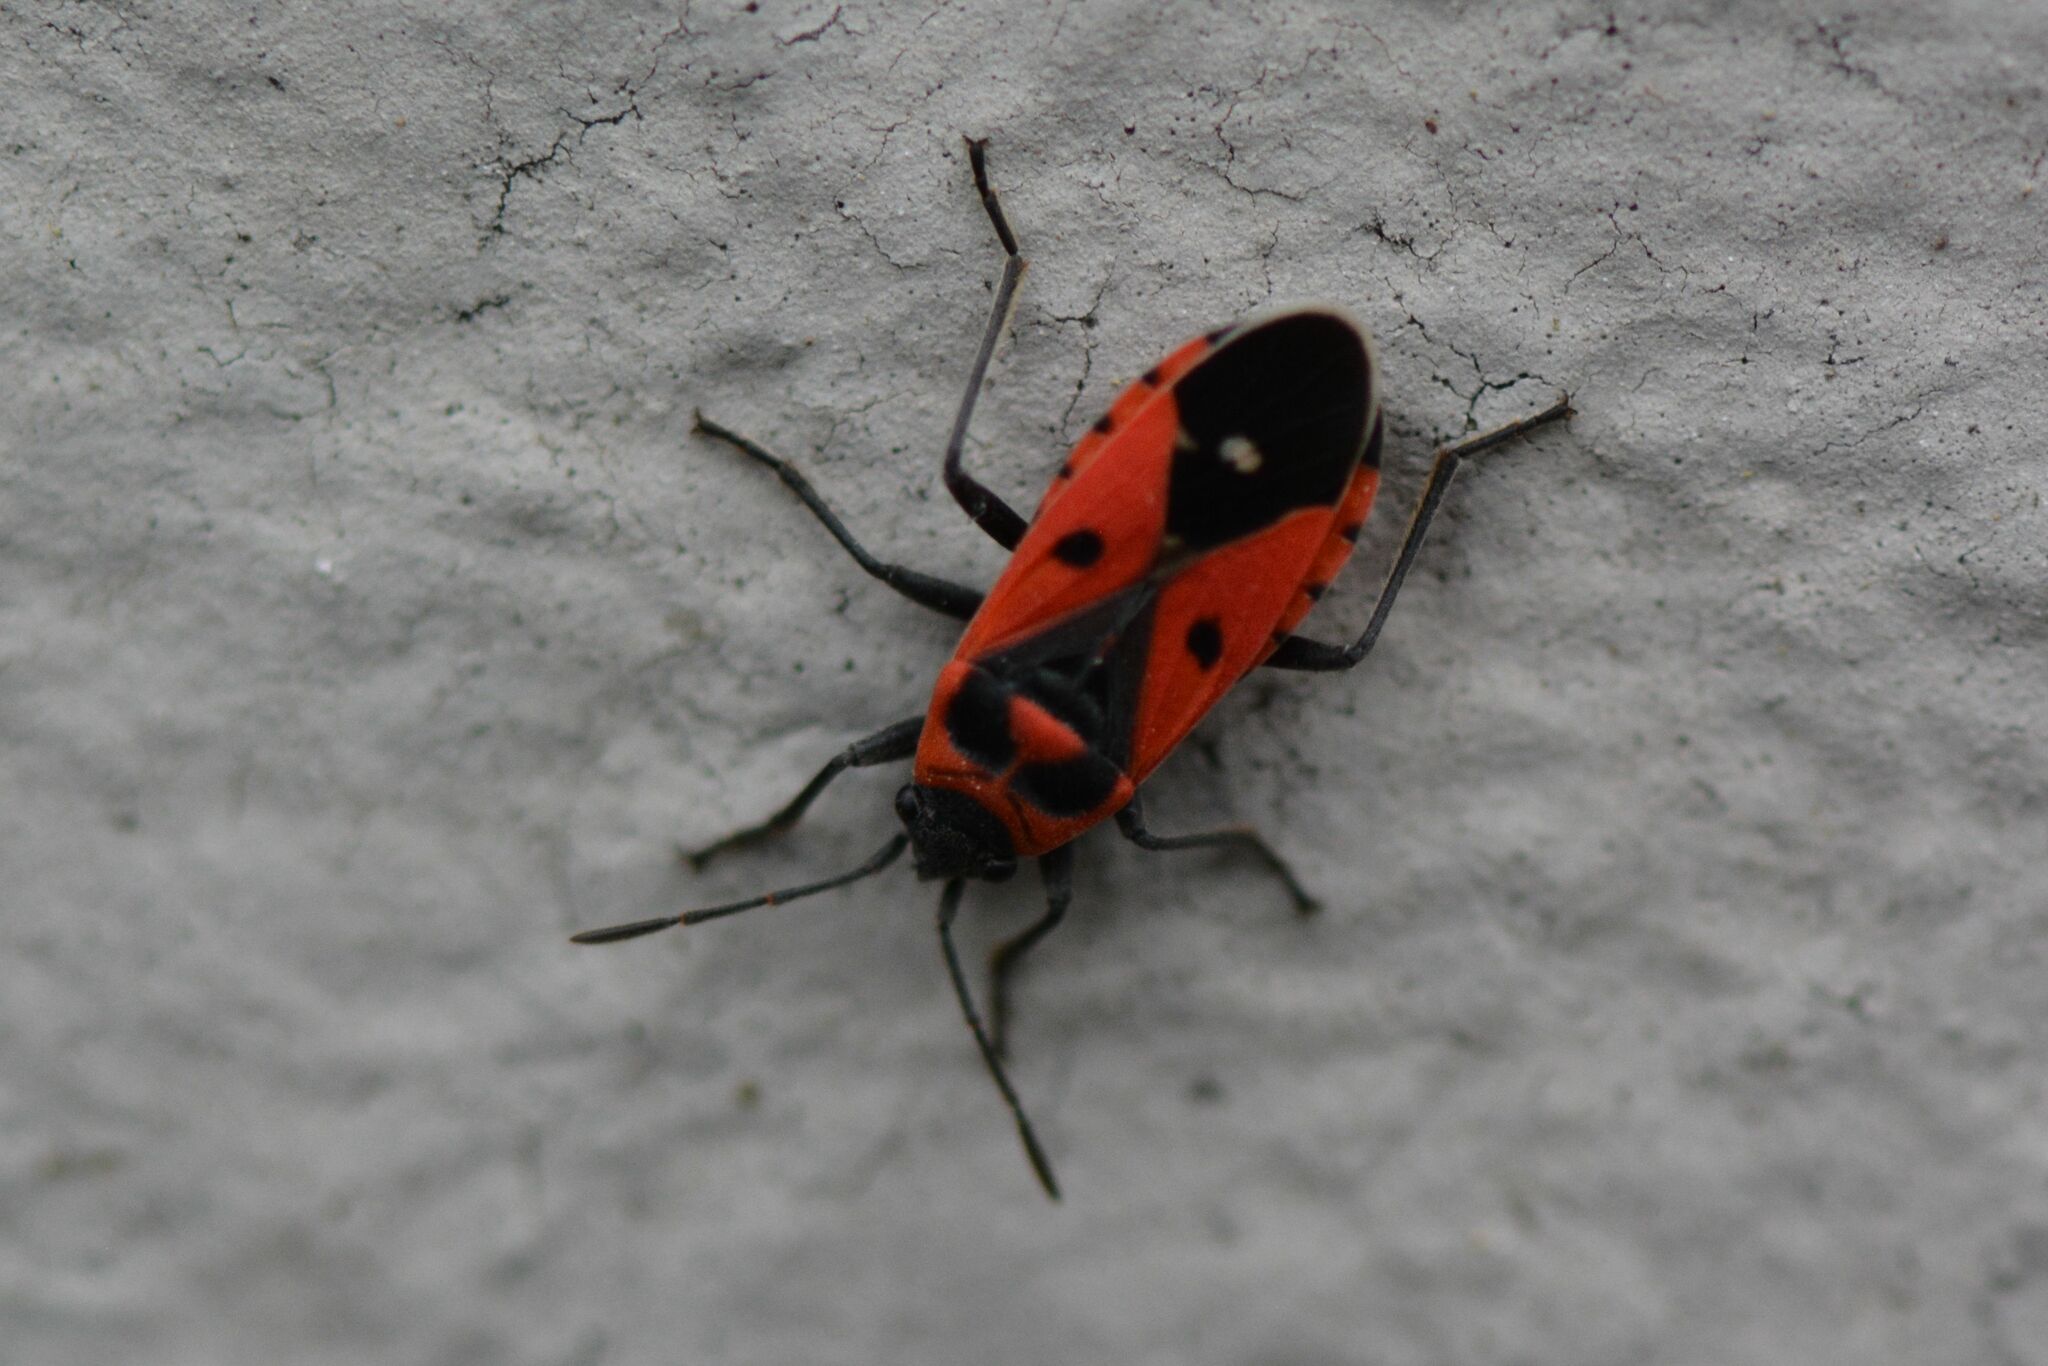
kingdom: Animalia
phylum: Arthropoda
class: Insecta
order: Hemiptera
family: Lygaeidae
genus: Melanocoryphus
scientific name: Melanocoryphus albomaculatus
